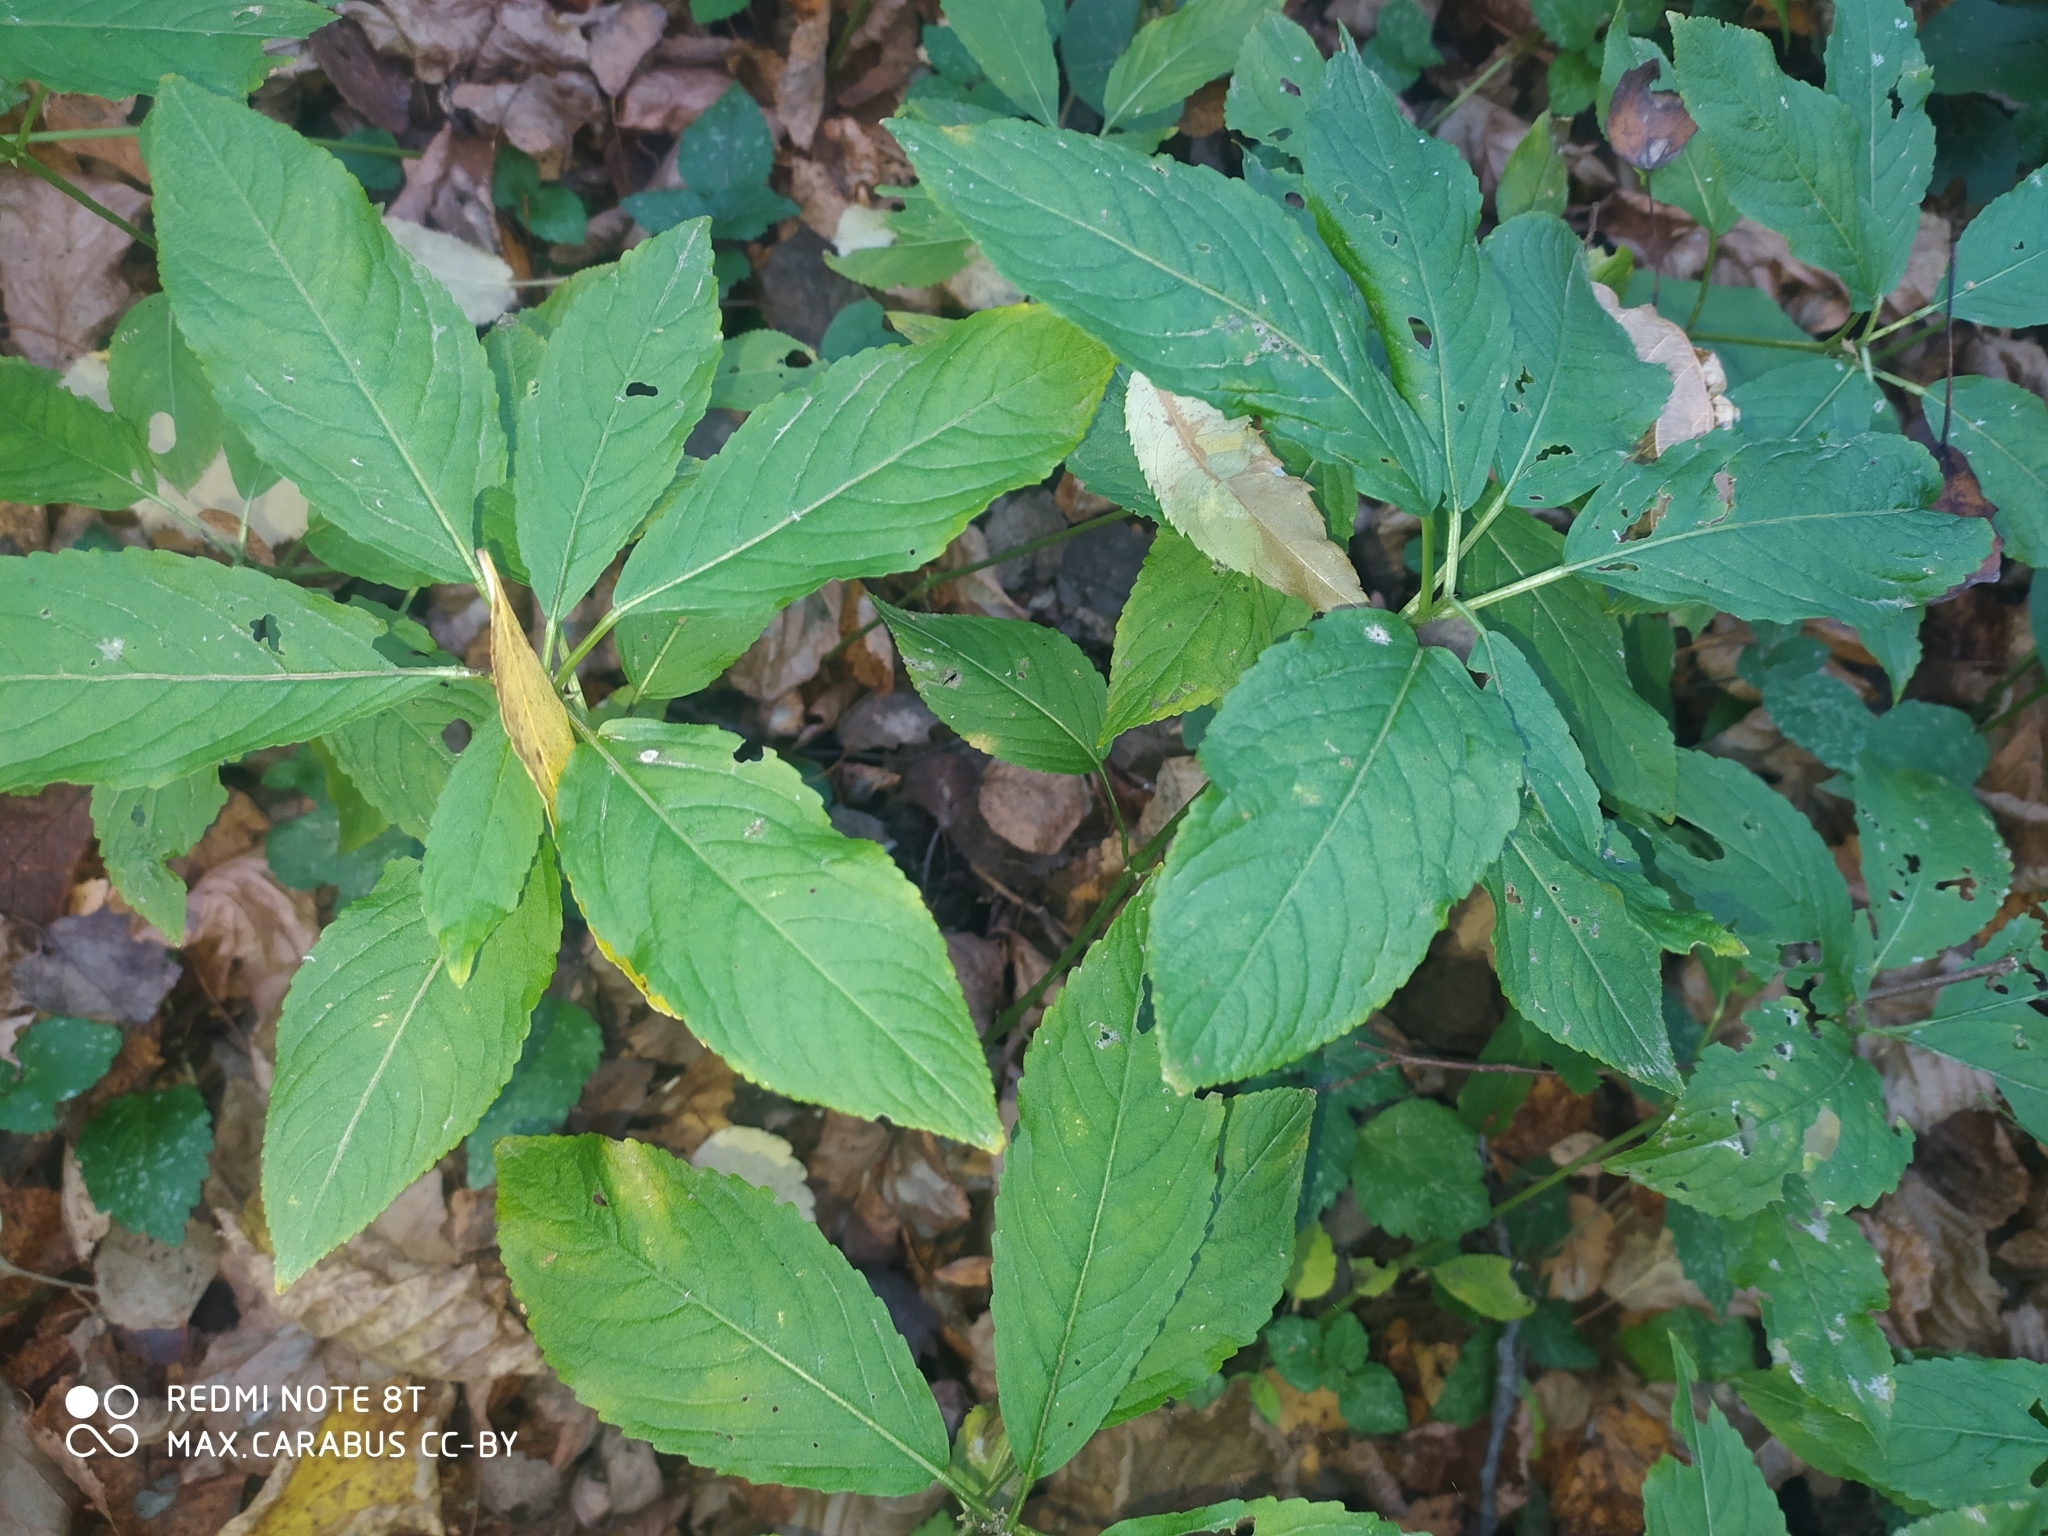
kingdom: Plantae
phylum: Tracheophyta
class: Magnoliopsida
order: Malpighiales
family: Euphorbiaceae
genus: Mercurialis
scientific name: Mercurialis perennis
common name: Dog mercury
